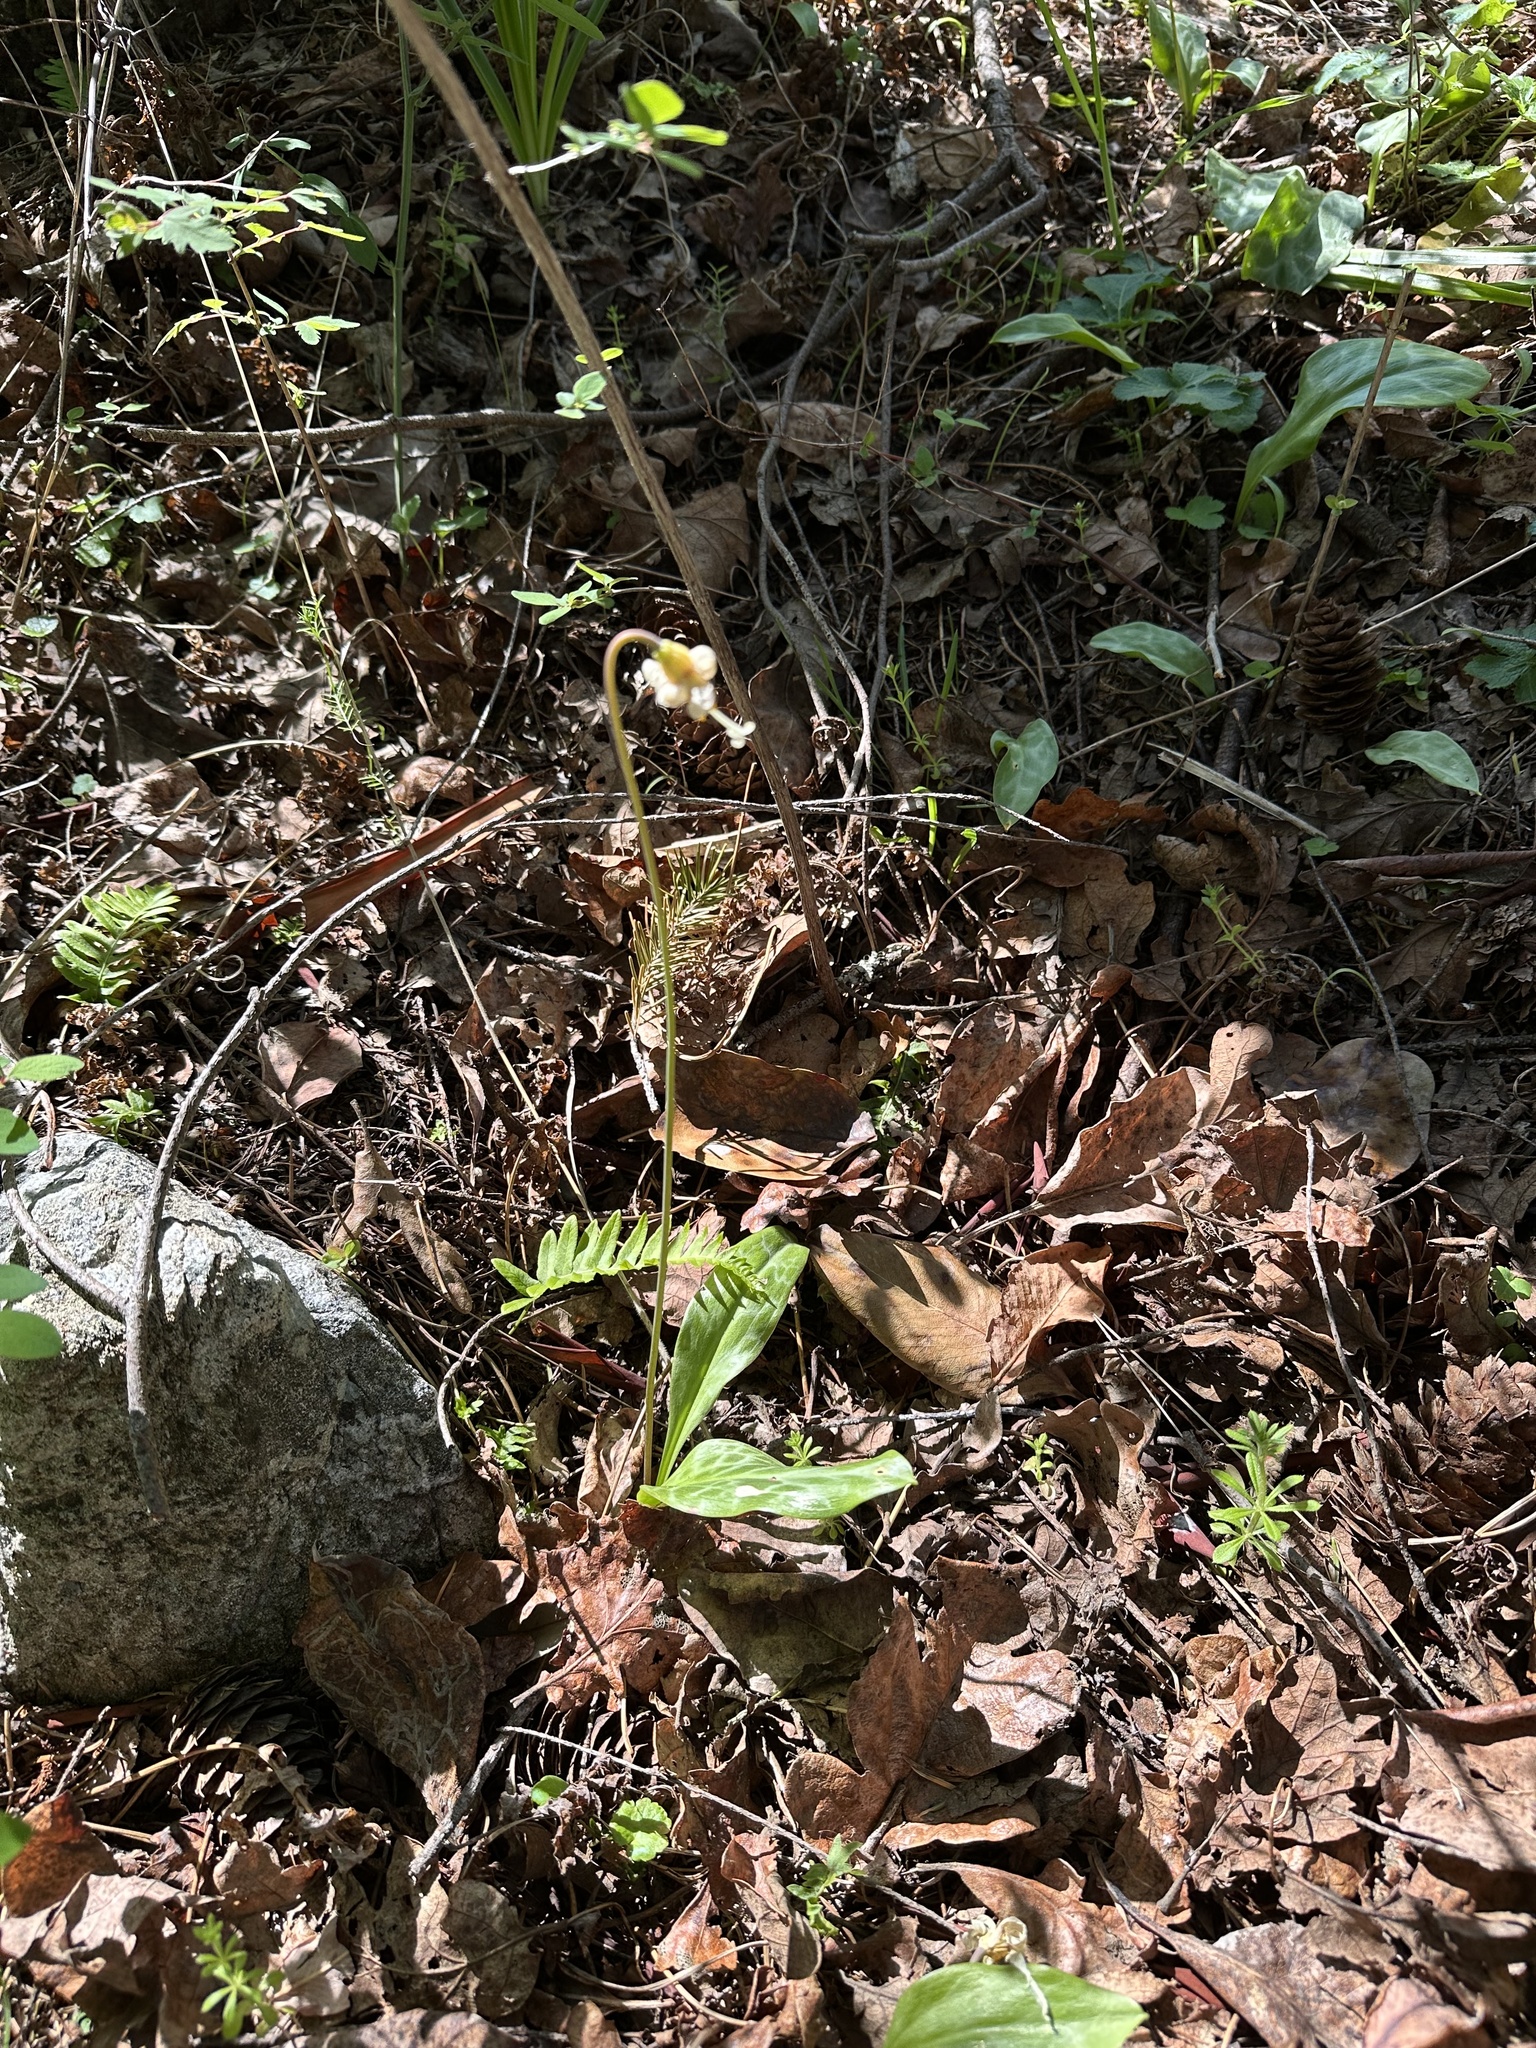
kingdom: Plantae
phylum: Tracheophyta
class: Liliopsida
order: Liliales
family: Liliaceae
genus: Erythronium
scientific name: Erythronium oregonum
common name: Giant adder's-tongue
